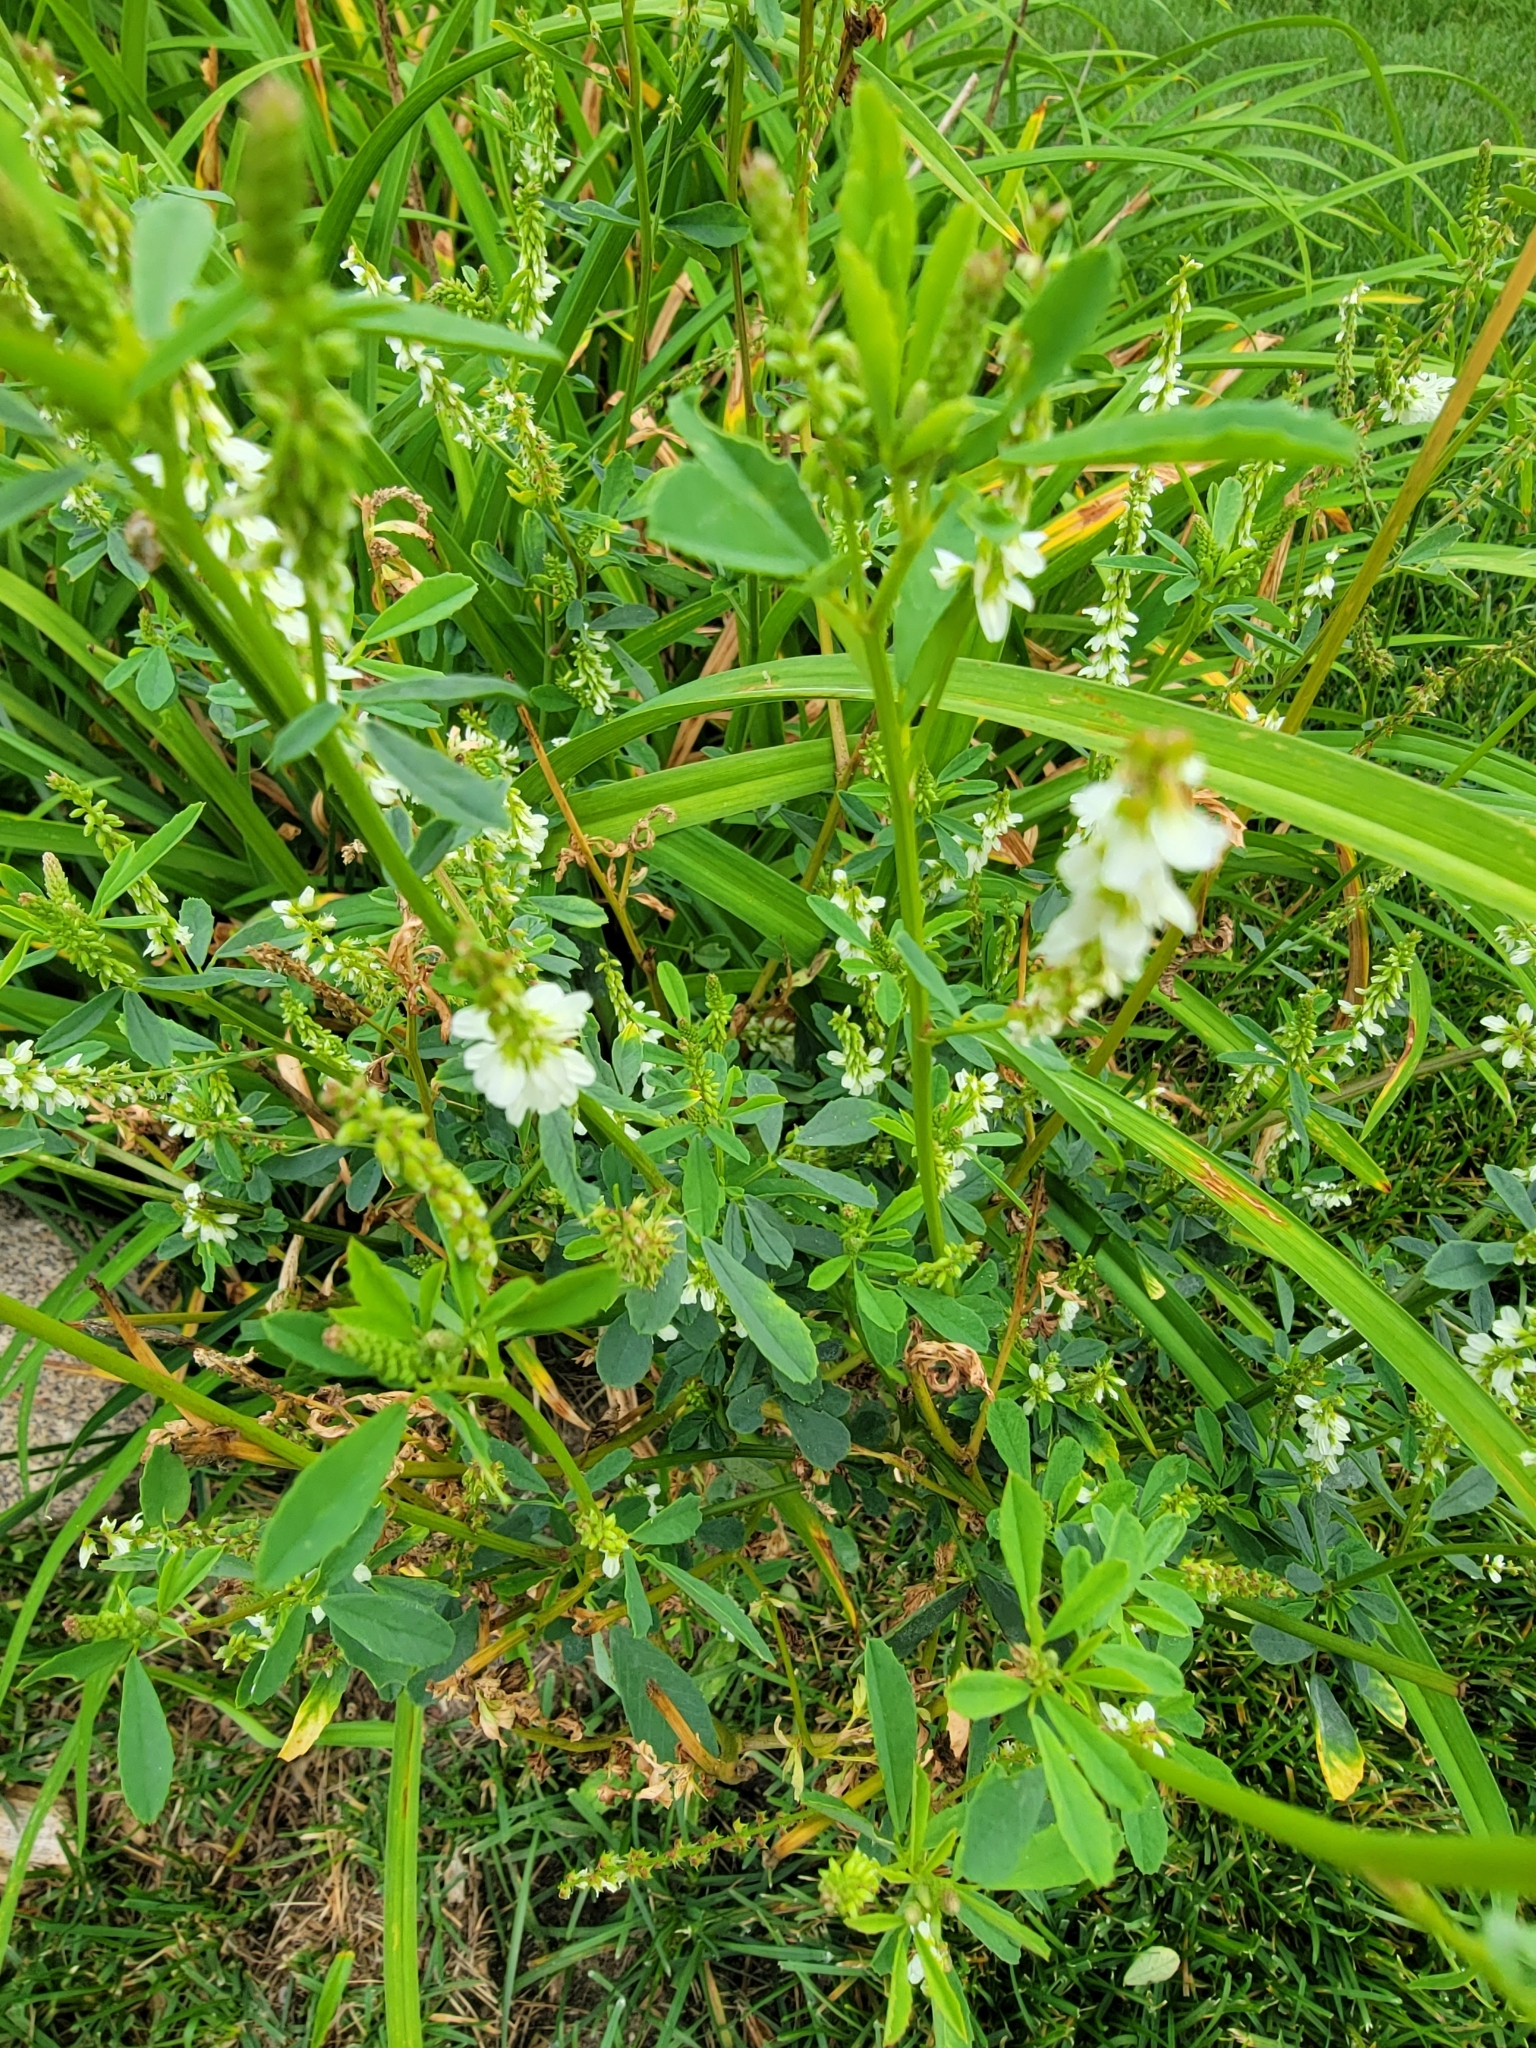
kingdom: Plantae
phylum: Tracheophyta
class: Magnoliopsida
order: Fabales
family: Fabaceae
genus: Melilotus
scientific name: Melilotus albus
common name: White melilot
